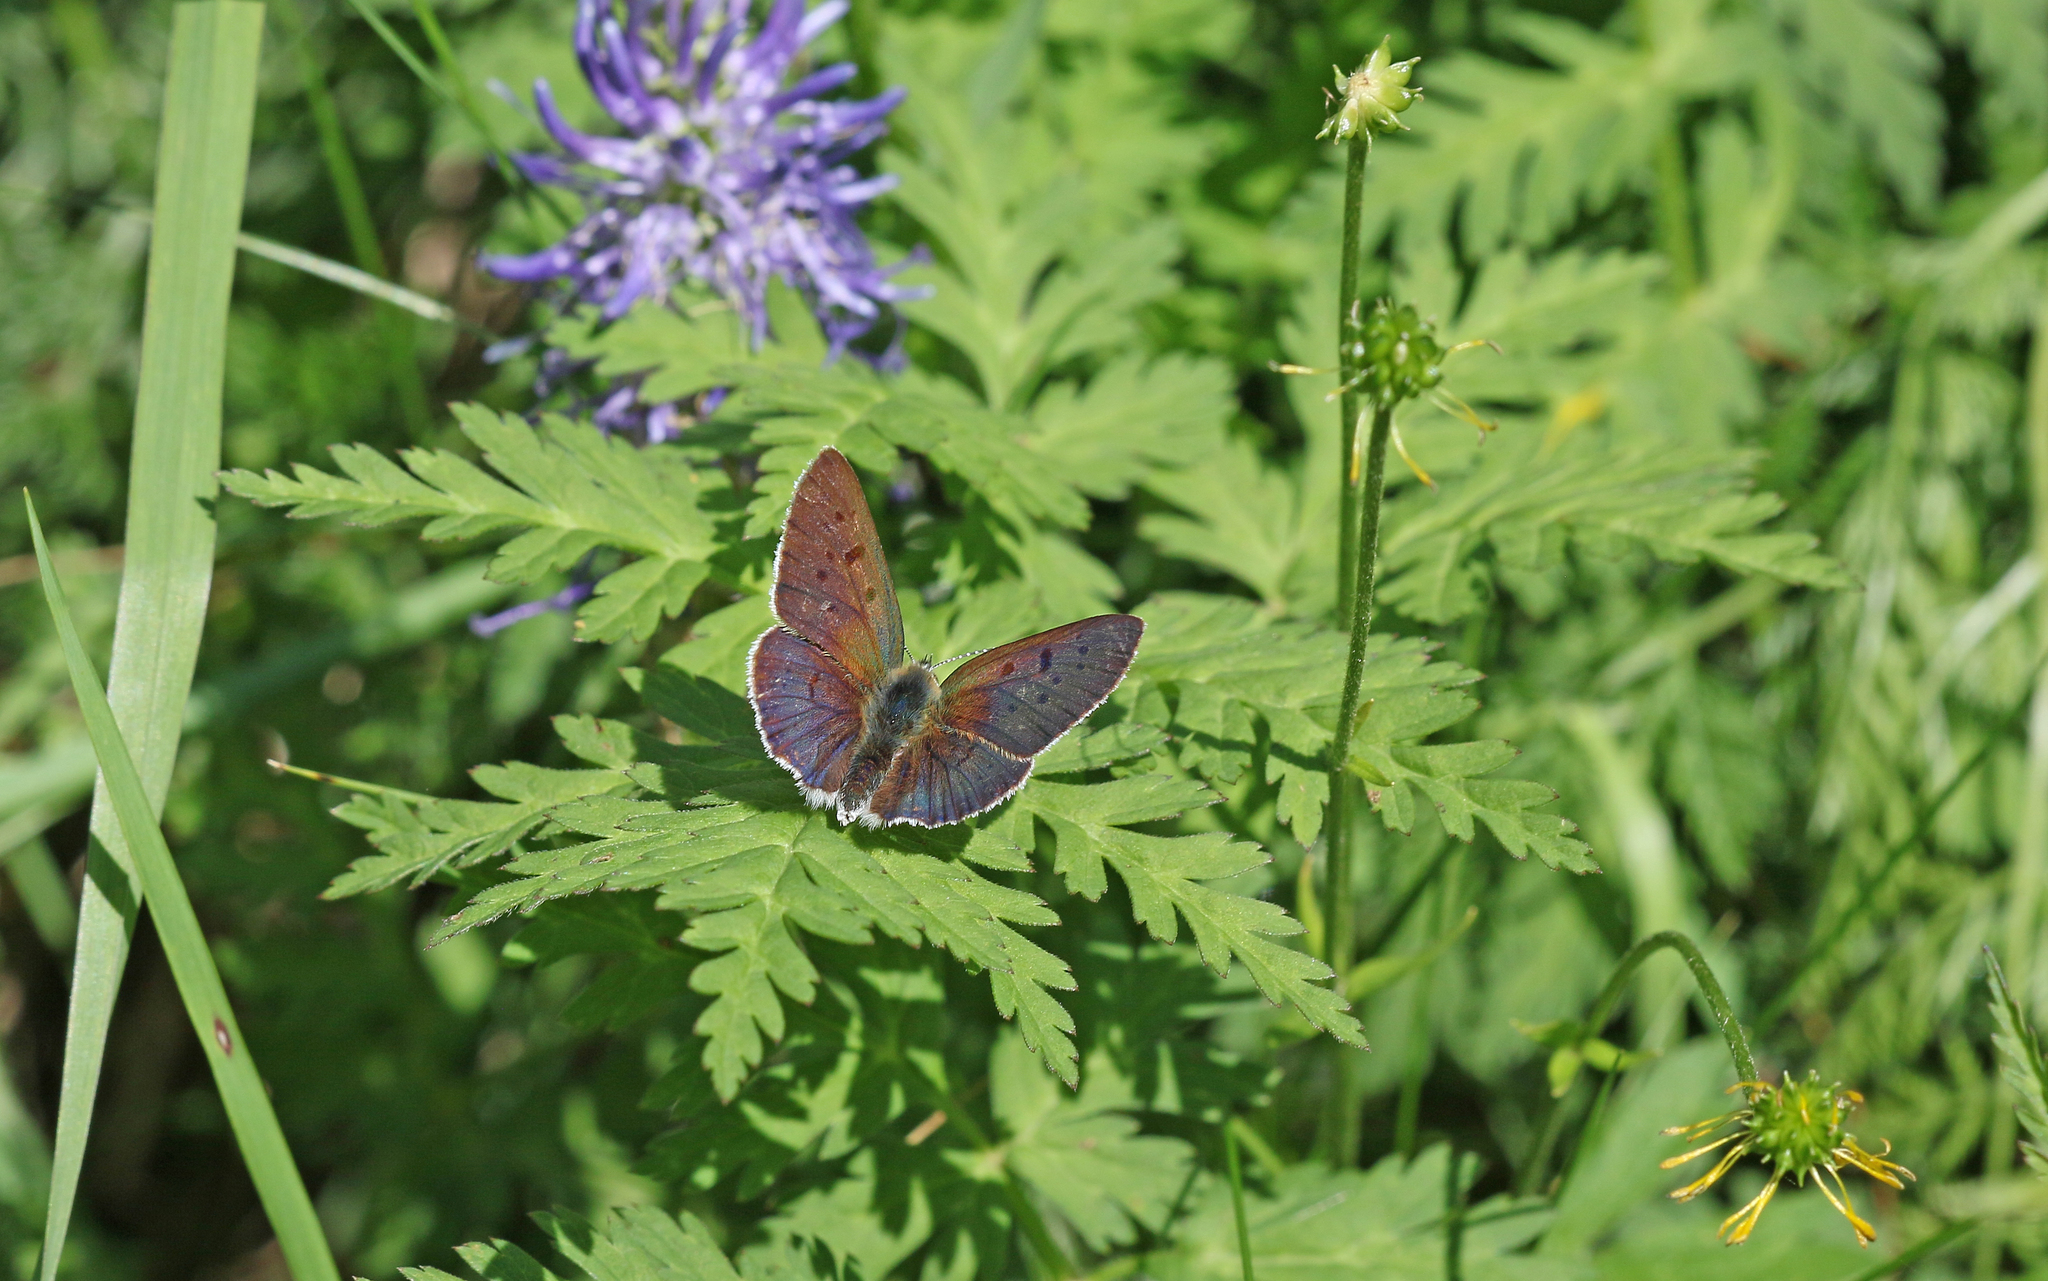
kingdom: Animalia
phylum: Arthropoda
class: Insecta
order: Lepidoptera
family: Lycaenidae
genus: Loweia
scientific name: Loweia tityrus
